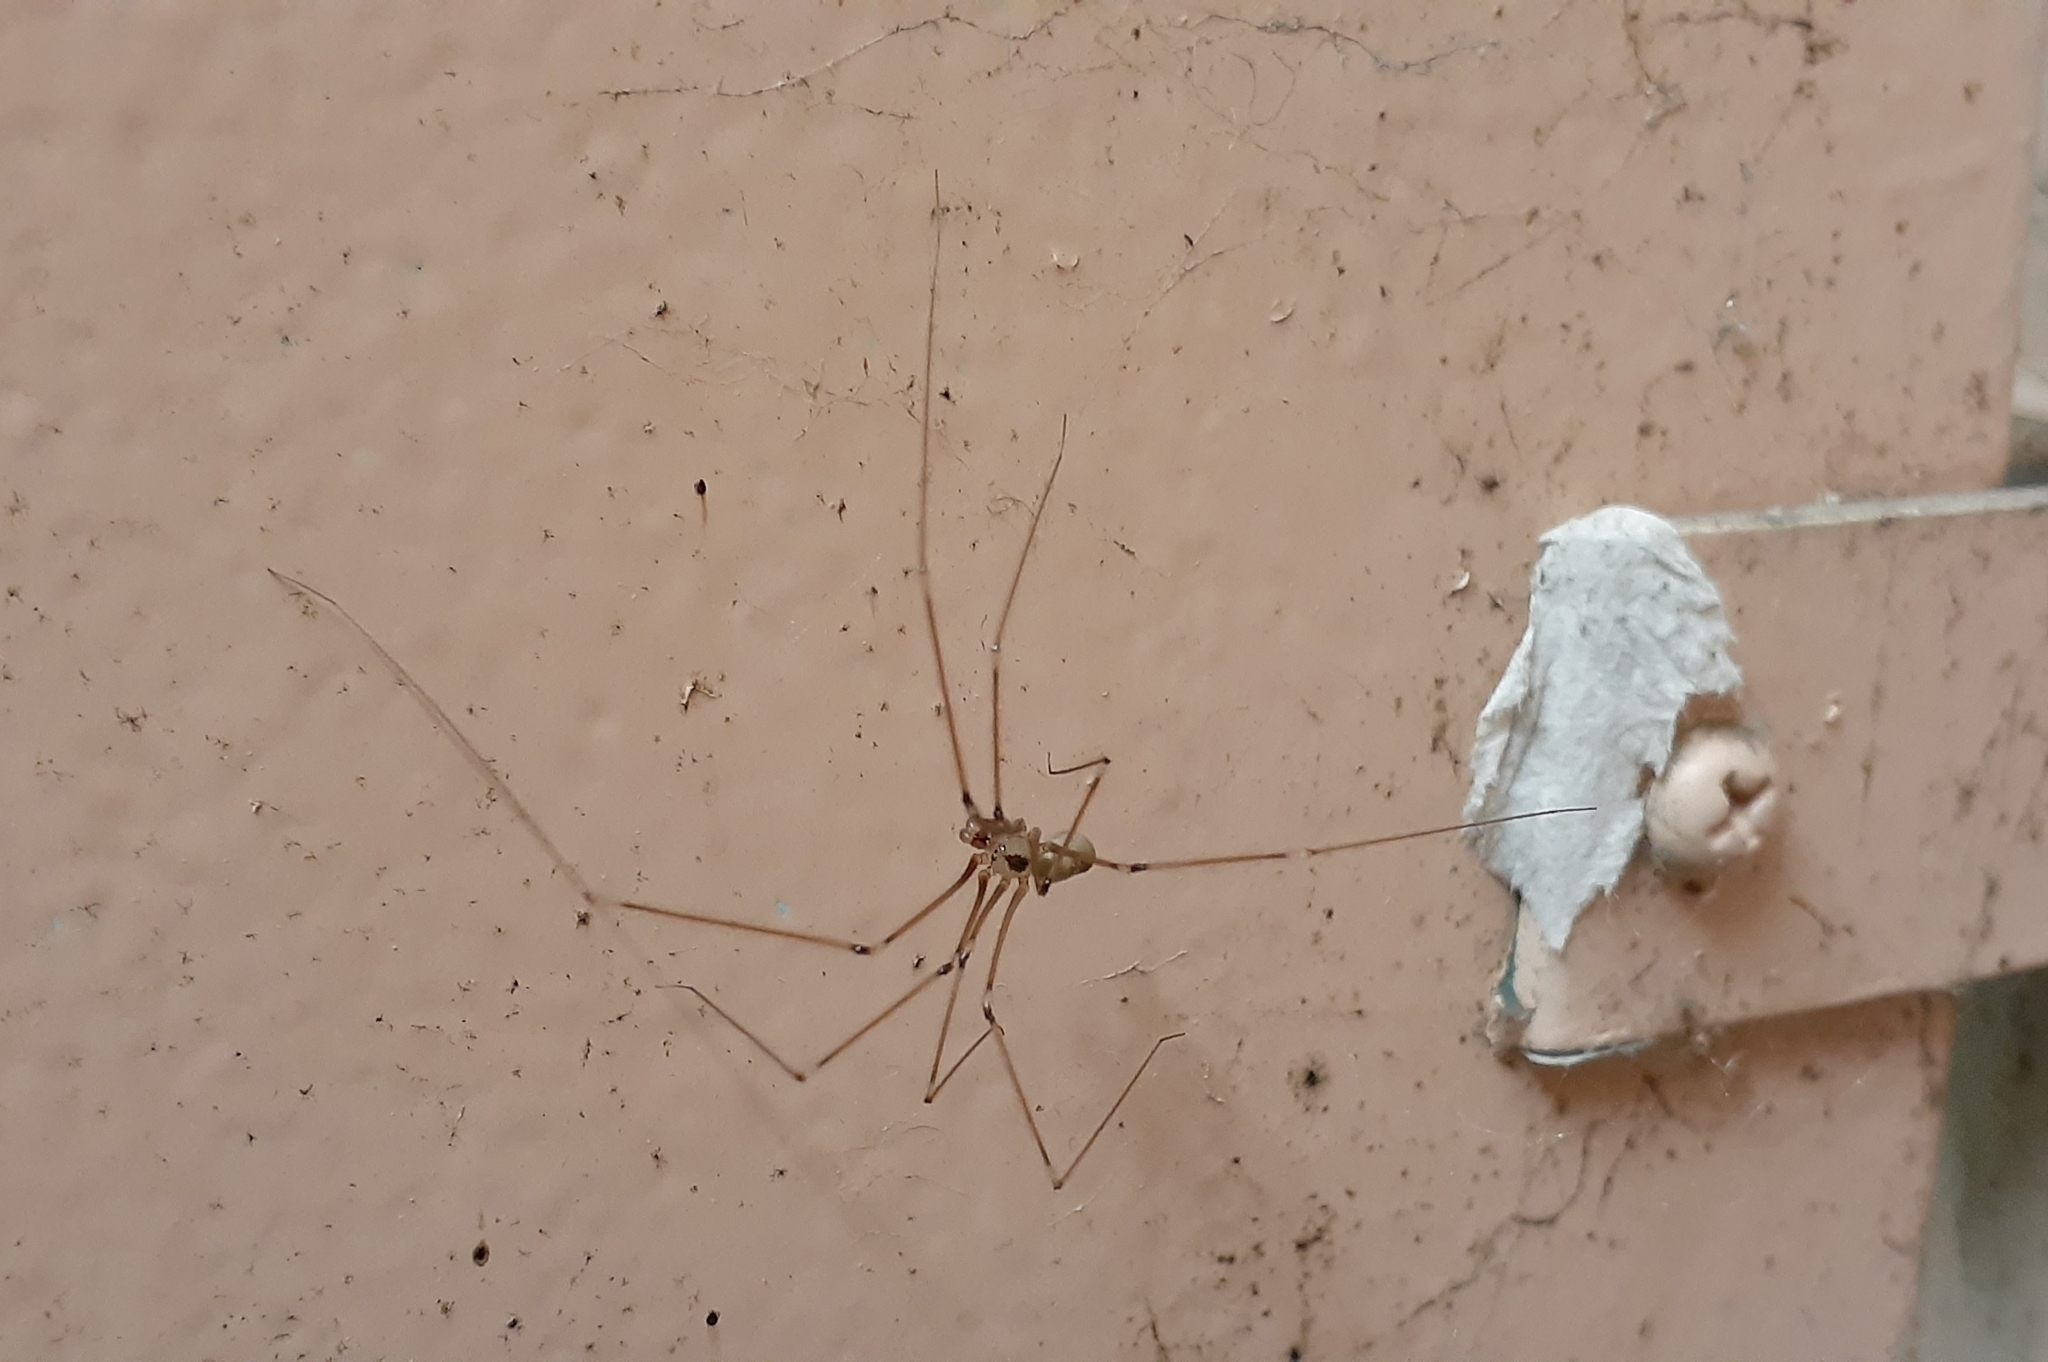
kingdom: Animalia
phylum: Arthropoda
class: Arachnida
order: Araneae
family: Pholcidae
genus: Pholcus
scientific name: Pholcus phalangioides
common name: Longbodied cellar spider
